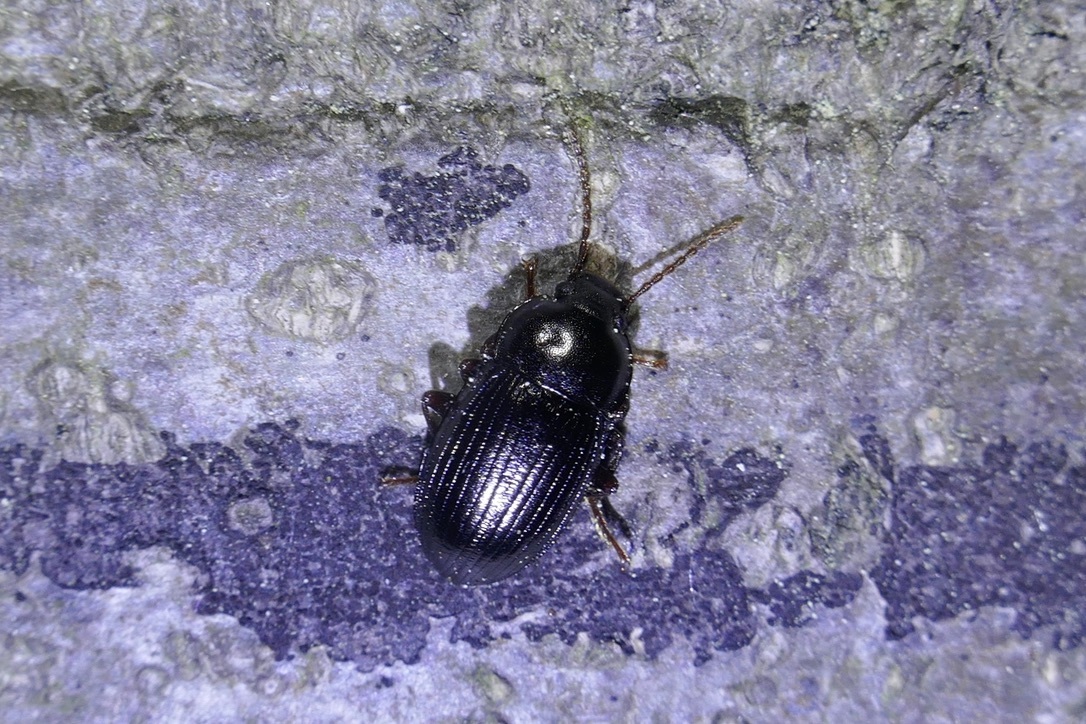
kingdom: Animalia
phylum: Arthropoda
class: Insecta
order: Coleoptera
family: Tenebrionidae
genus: Nalassus
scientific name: Nalassus dermestoides
